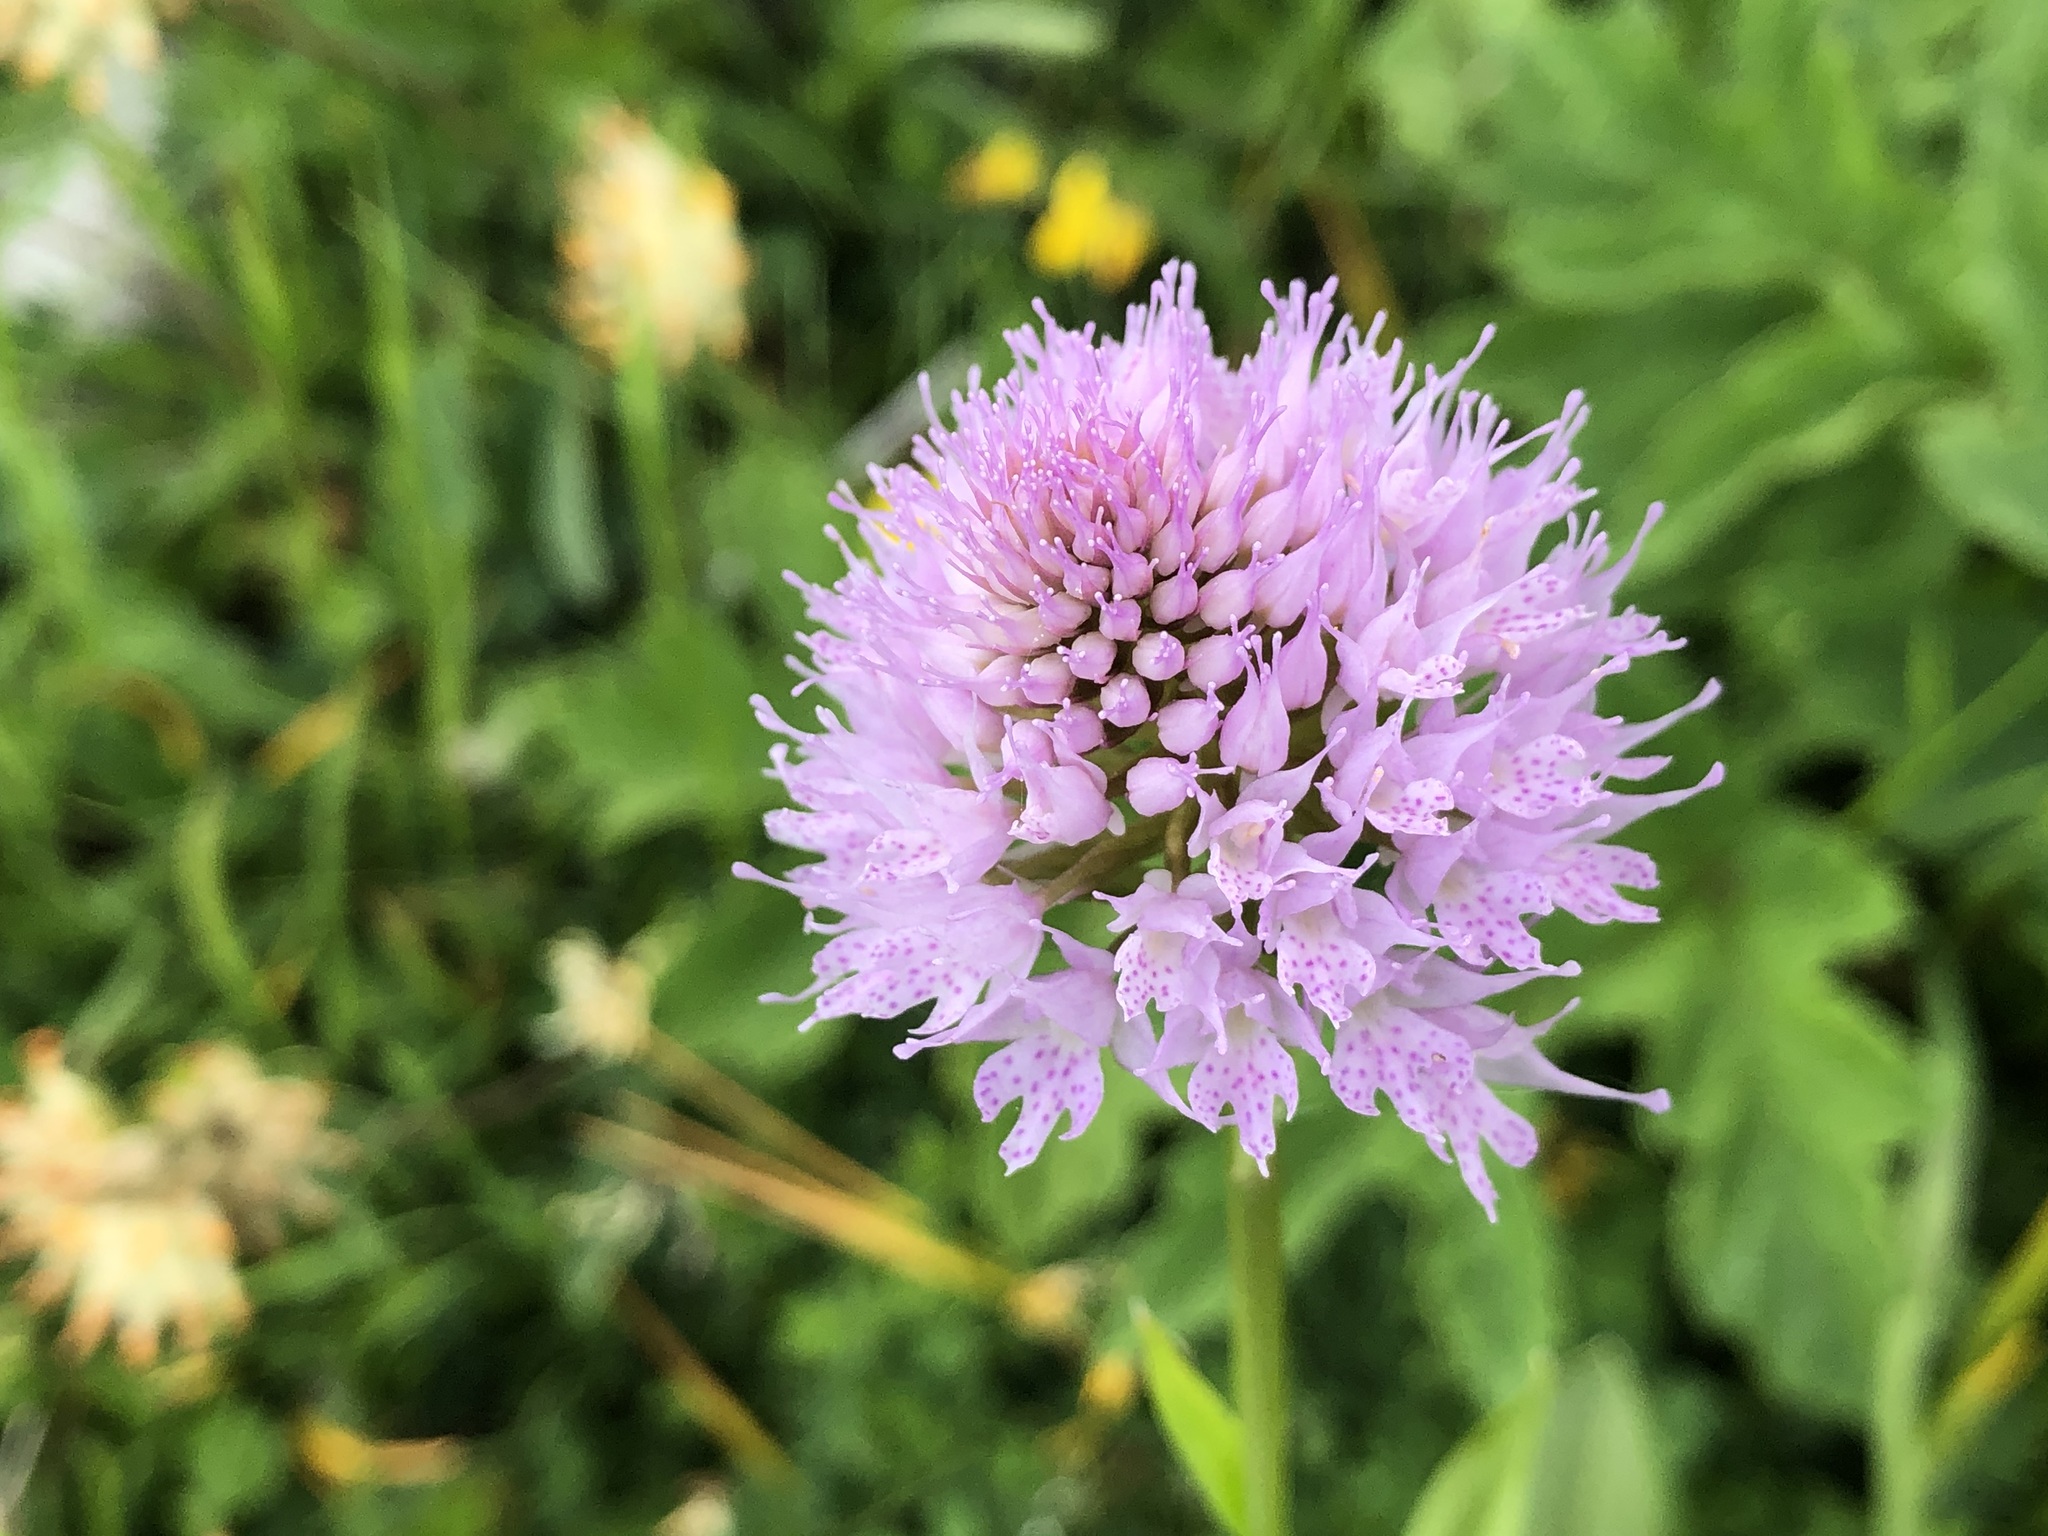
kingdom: Plantae
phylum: Tracheophyta
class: Liliopsida
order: Asparagales
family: Orchidaceae
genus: Traunsteinera
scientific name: Traunsteinera globosa
